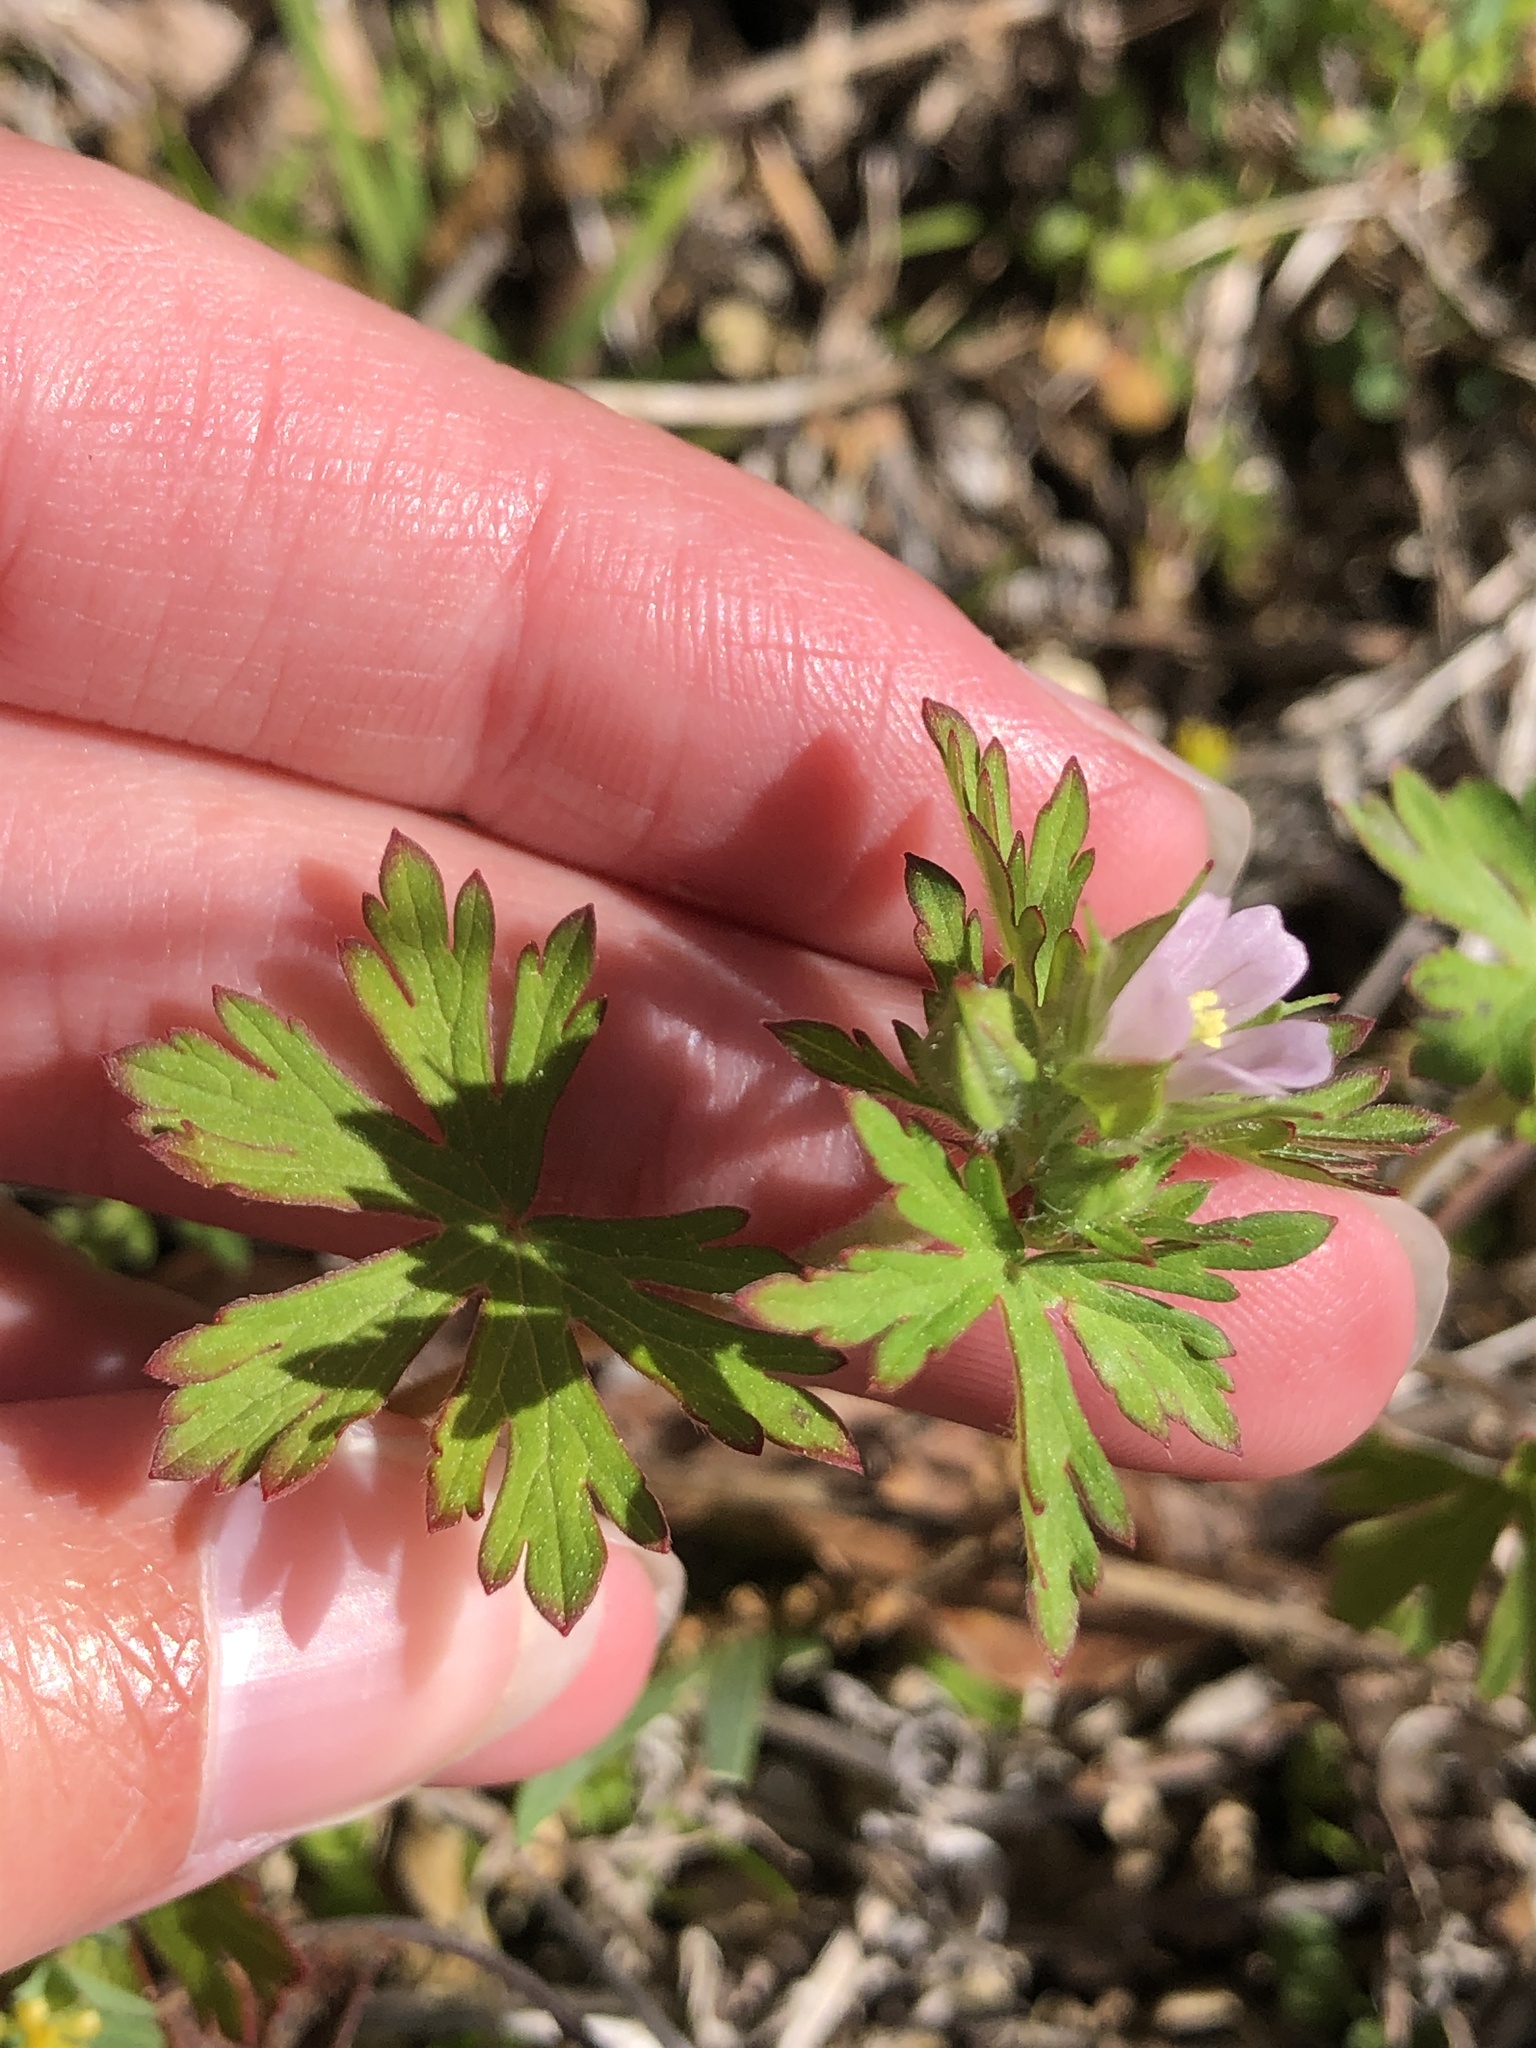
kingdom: Plantae
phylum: Tracheophyta
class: Magnoliopsida
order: Geraniales
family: Geraniaceae
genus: Geranium
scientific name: Geranium carolinianum
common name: Carolina crane's-bill
